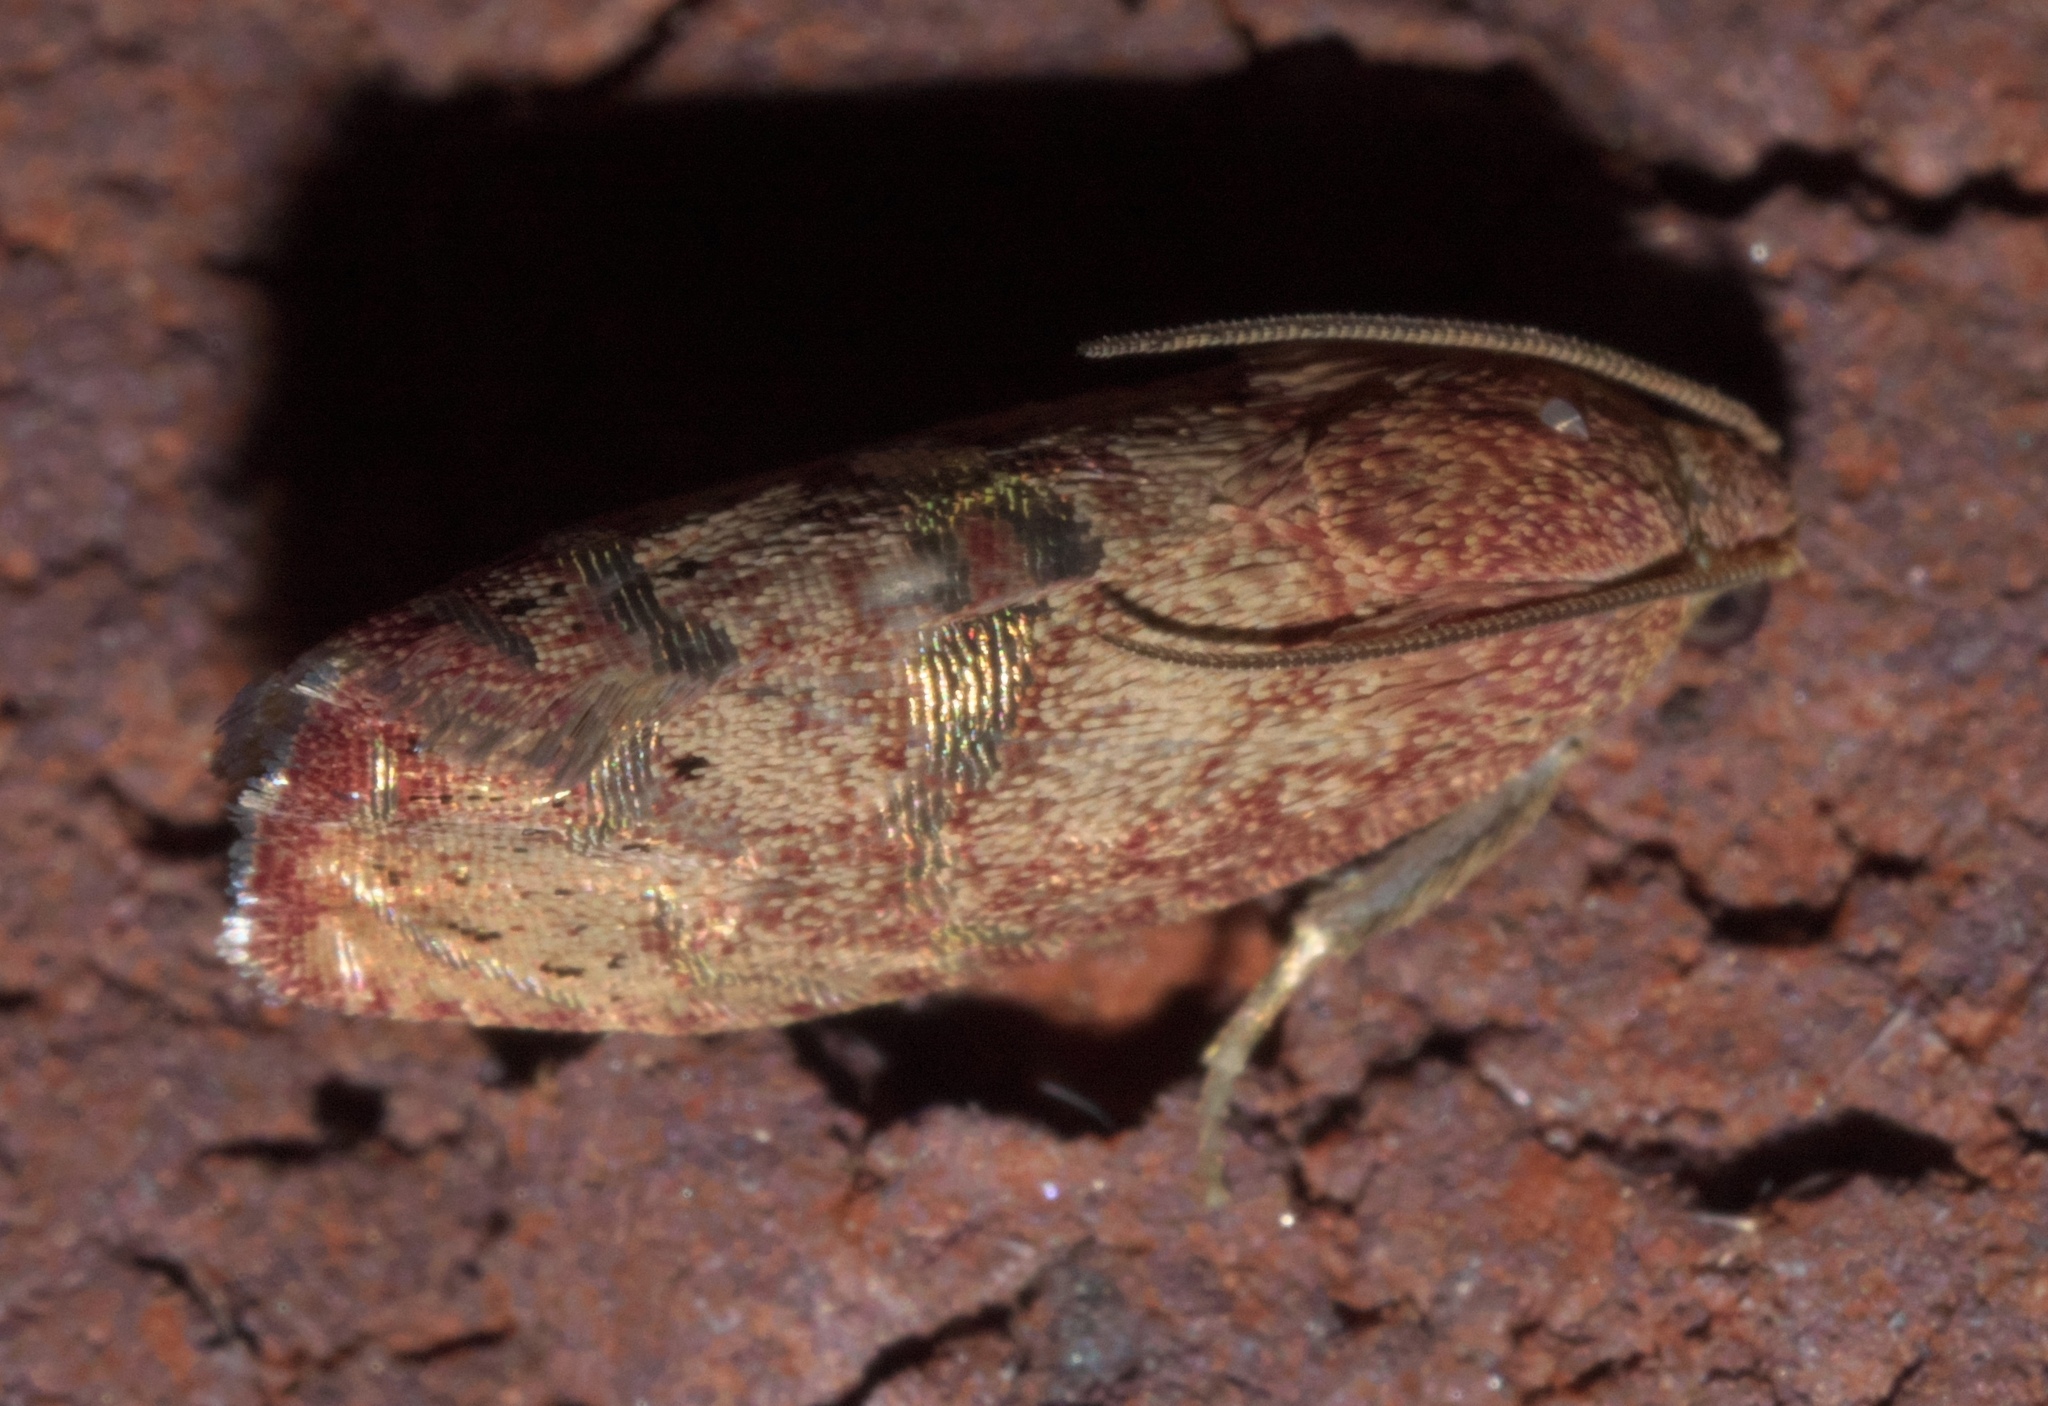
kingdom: Animalia
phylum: Arthropoda
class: Insecta
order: Lepidoptera
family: Tortricidae
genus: Cydia
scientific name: Cydia latiferreana
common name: Filbertworm moth
